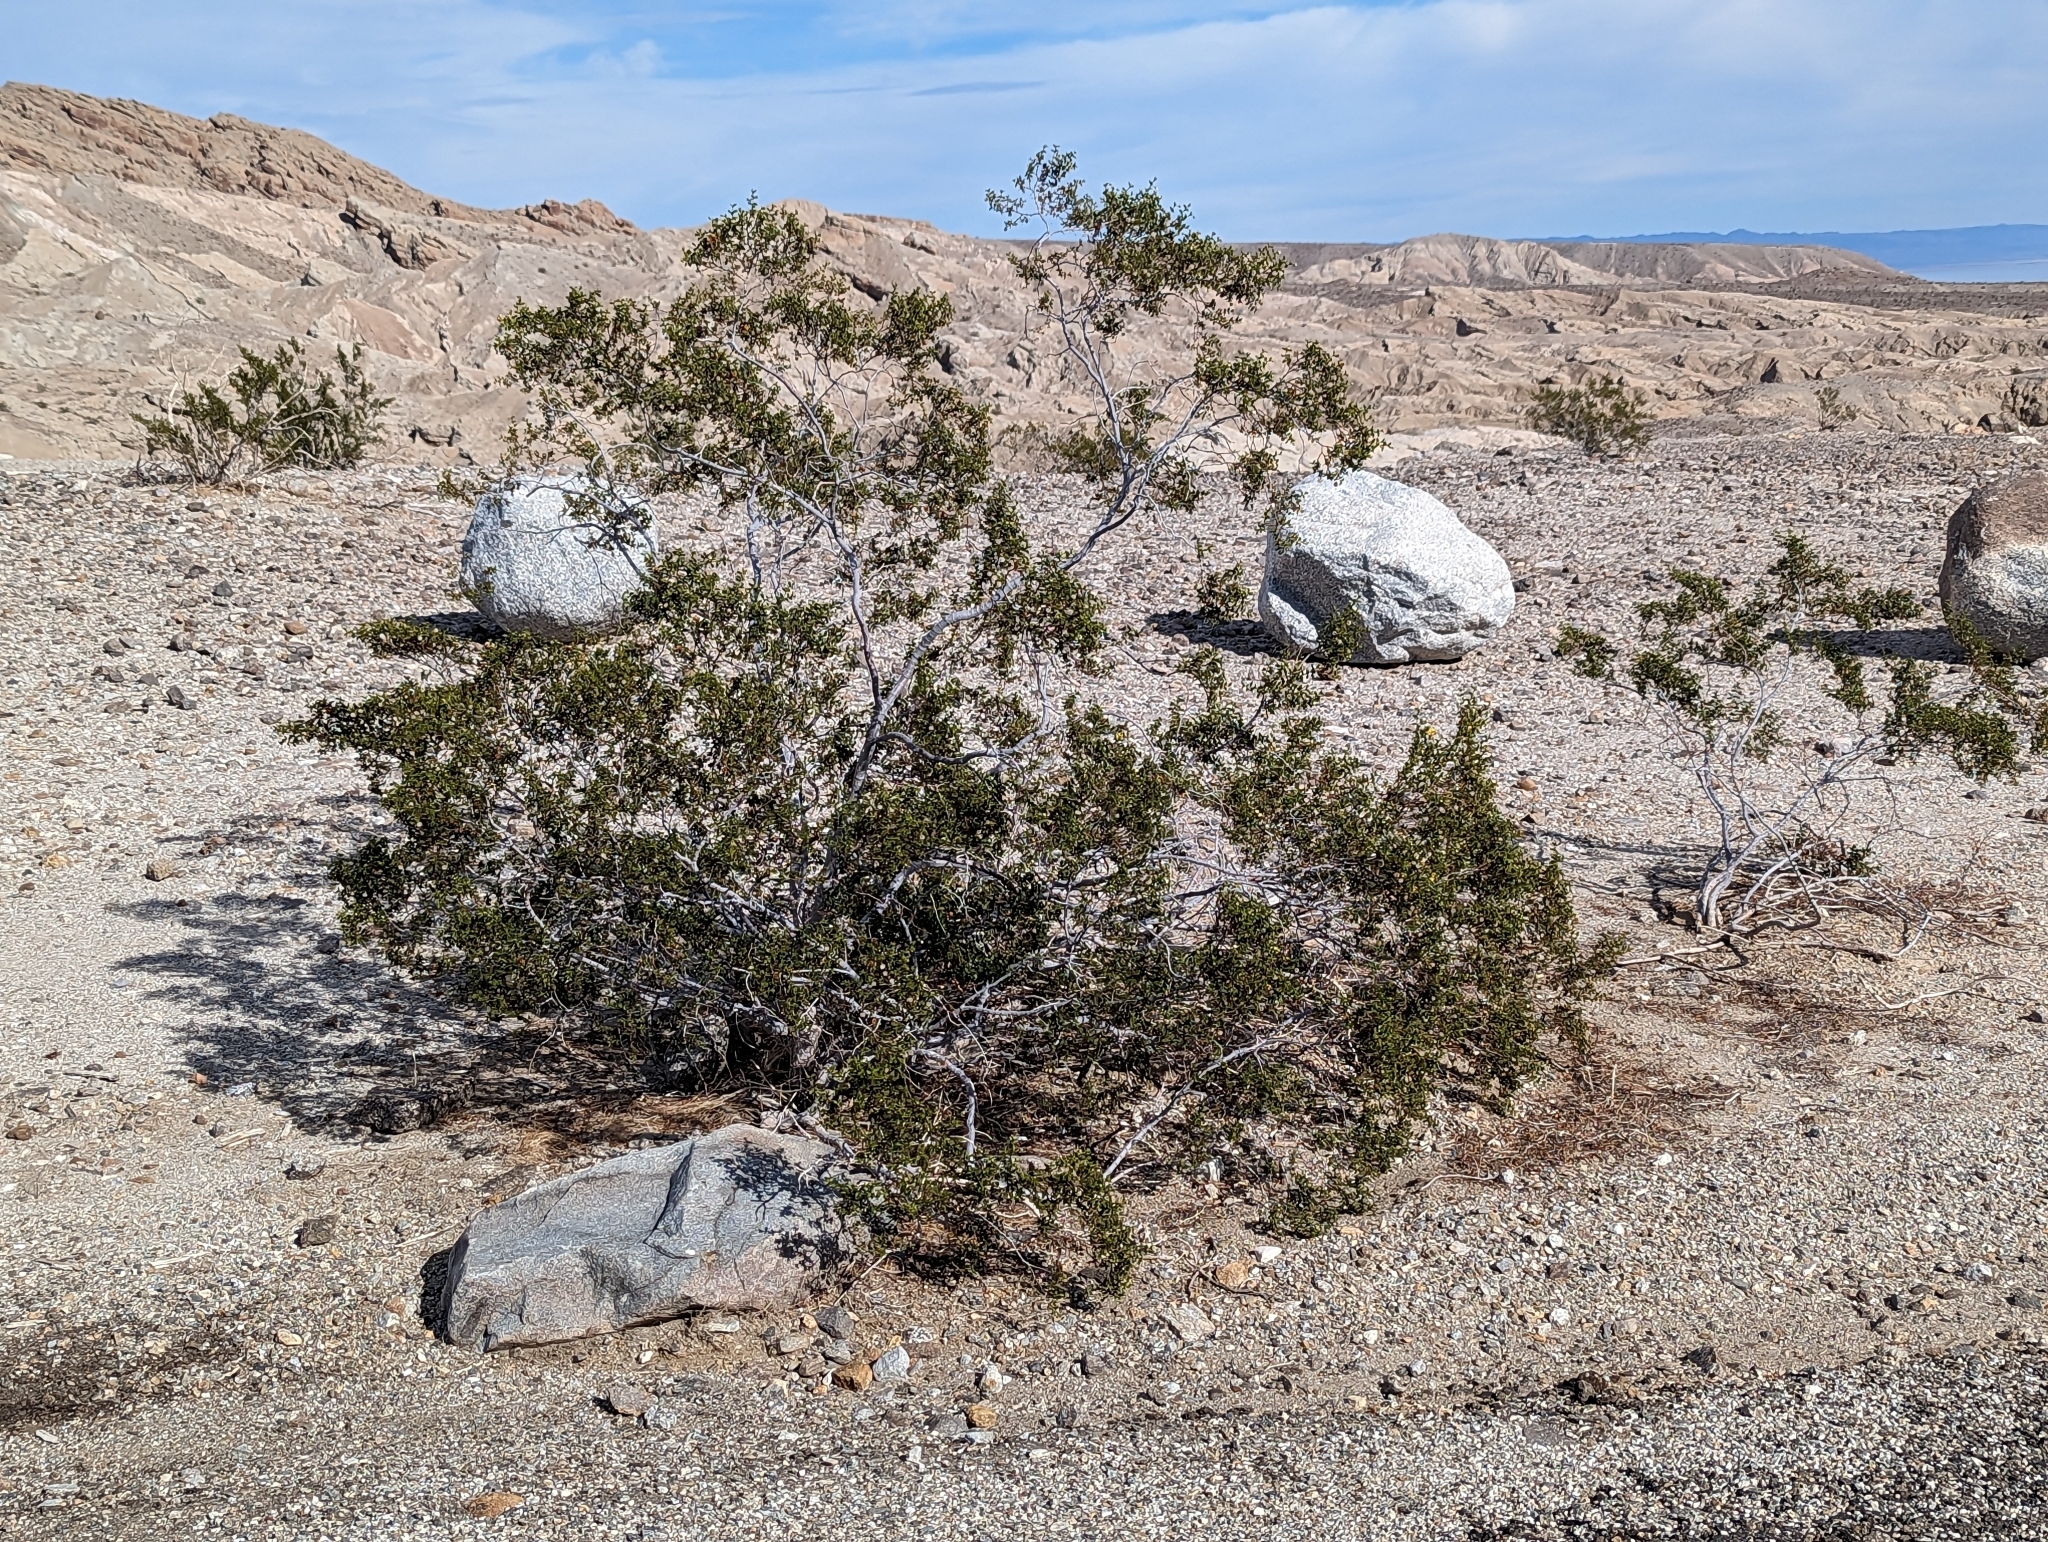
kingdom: Plantae
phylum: Tracheophyta
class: Magnoliopsida
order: Zygophyllales
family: Zygophyllaceae
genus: Larrea
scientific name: Larrea tridentata
